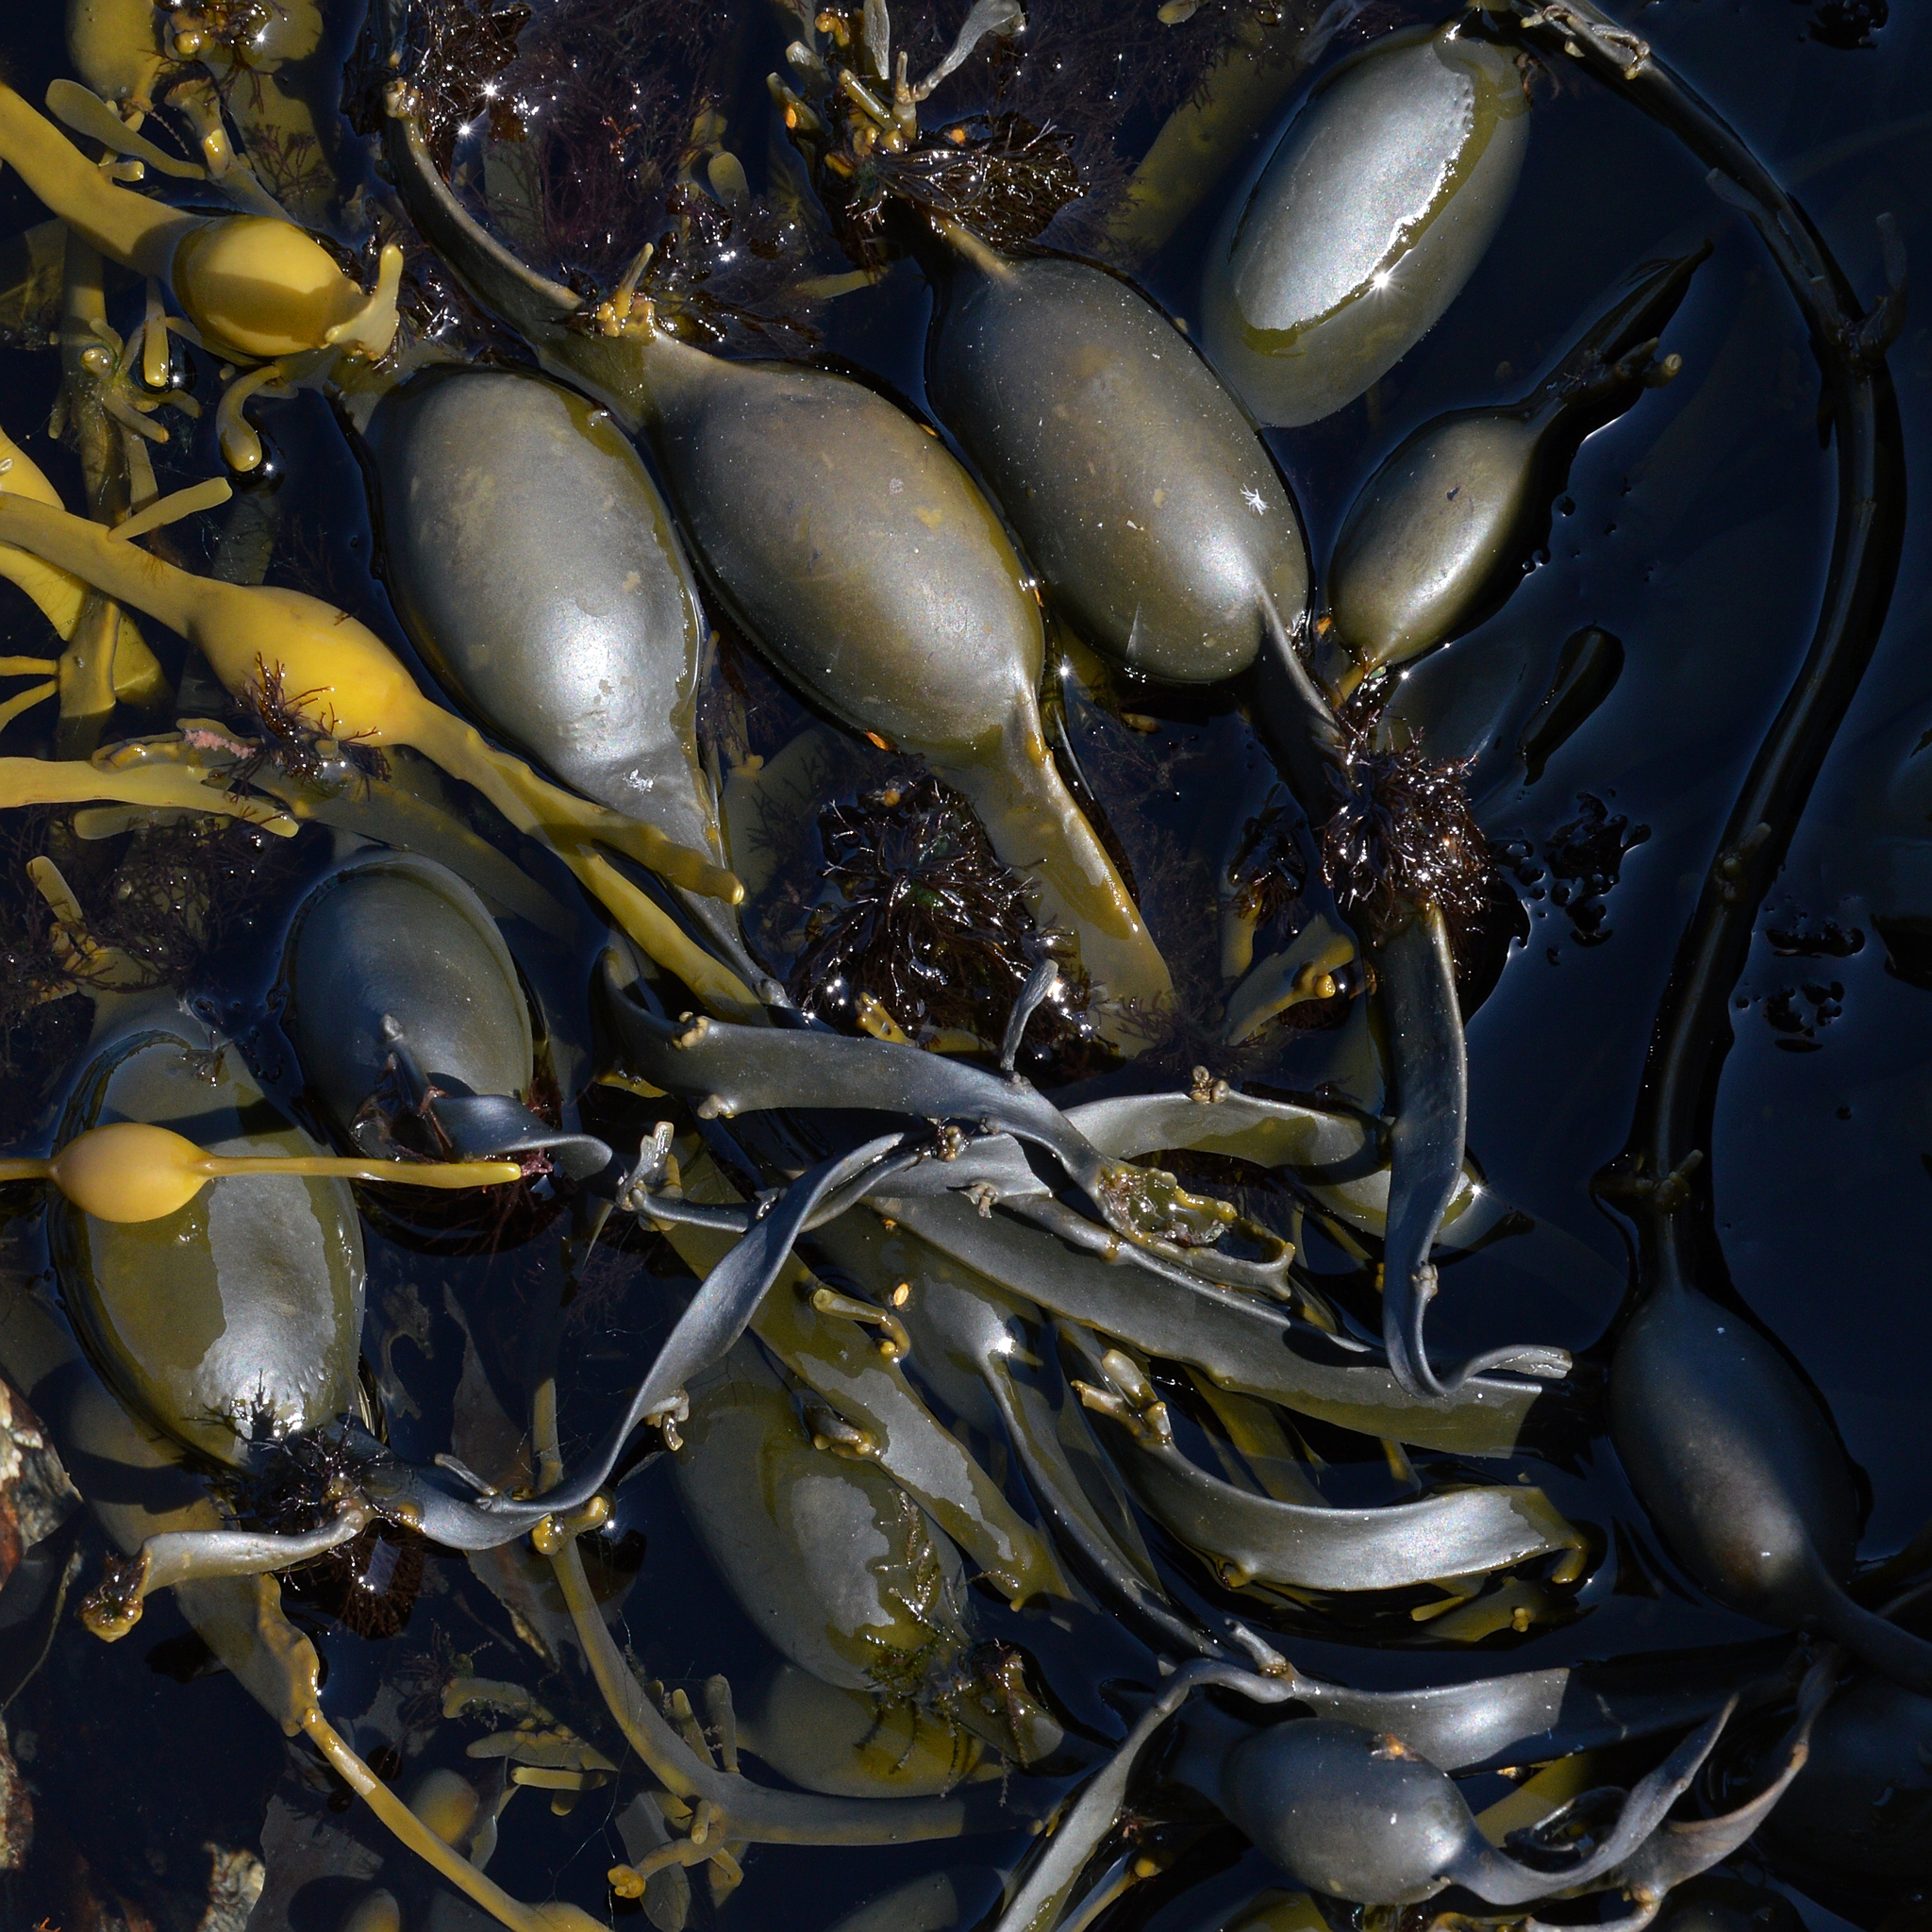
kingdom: Chromista
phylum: Ochrophyta
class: Phaeophyceae
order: Fucales
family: Fucaceae
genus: Ascophyllum
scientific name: Ascophyllum nodosum
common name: Knotted wrack
